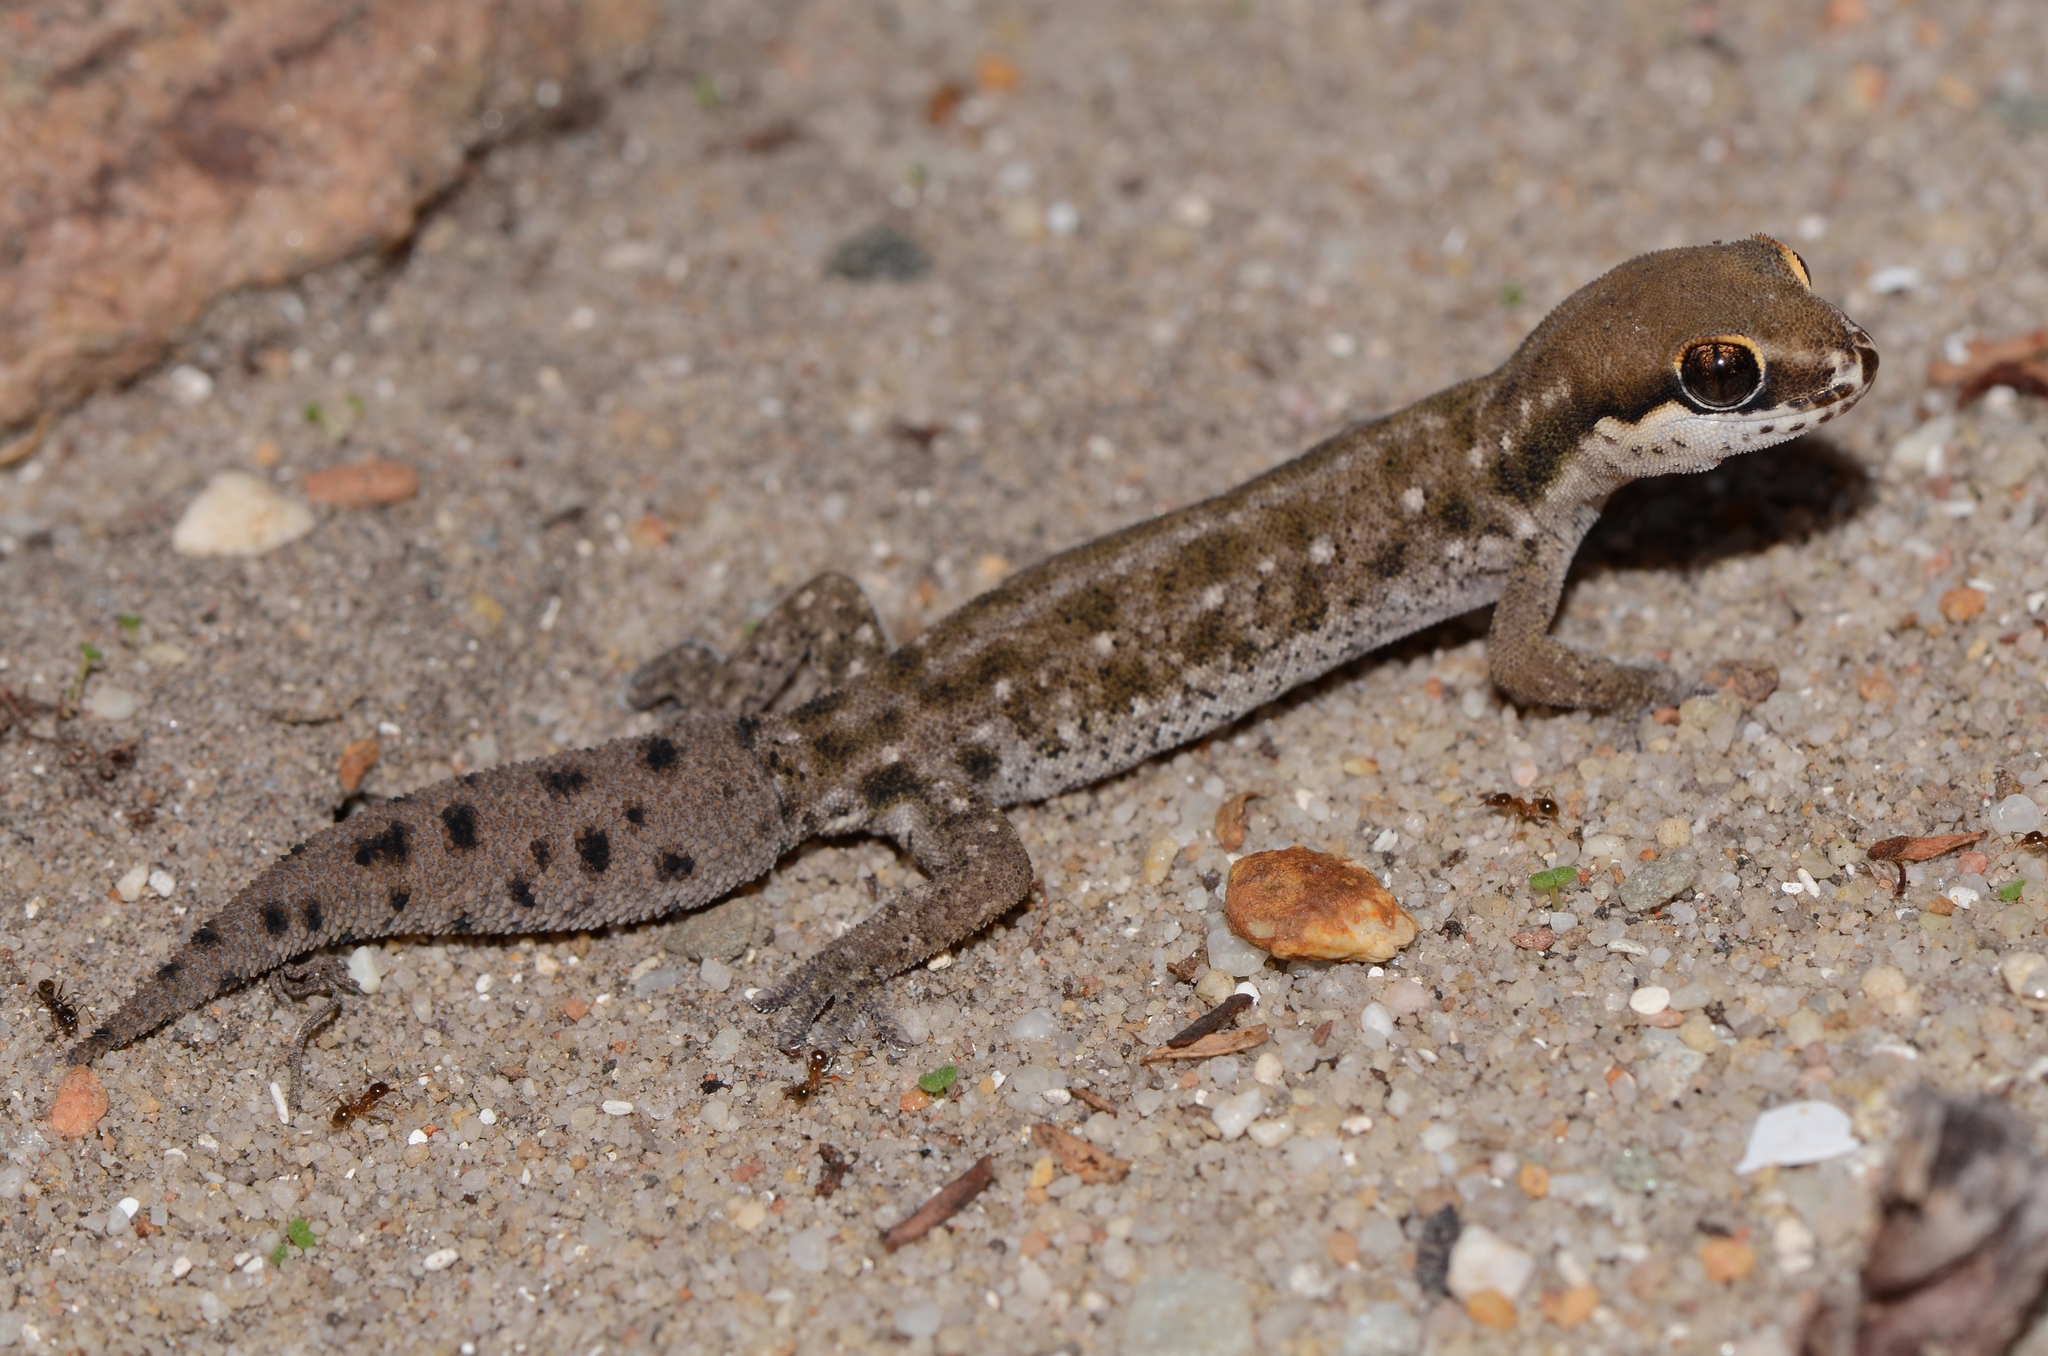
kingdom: Animalia
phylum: Chordata
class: Squamata
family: Gekkonidae
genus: Pachydactylus
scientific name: Pachydactylus geitje
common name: Ocellated thick-toed gecko
